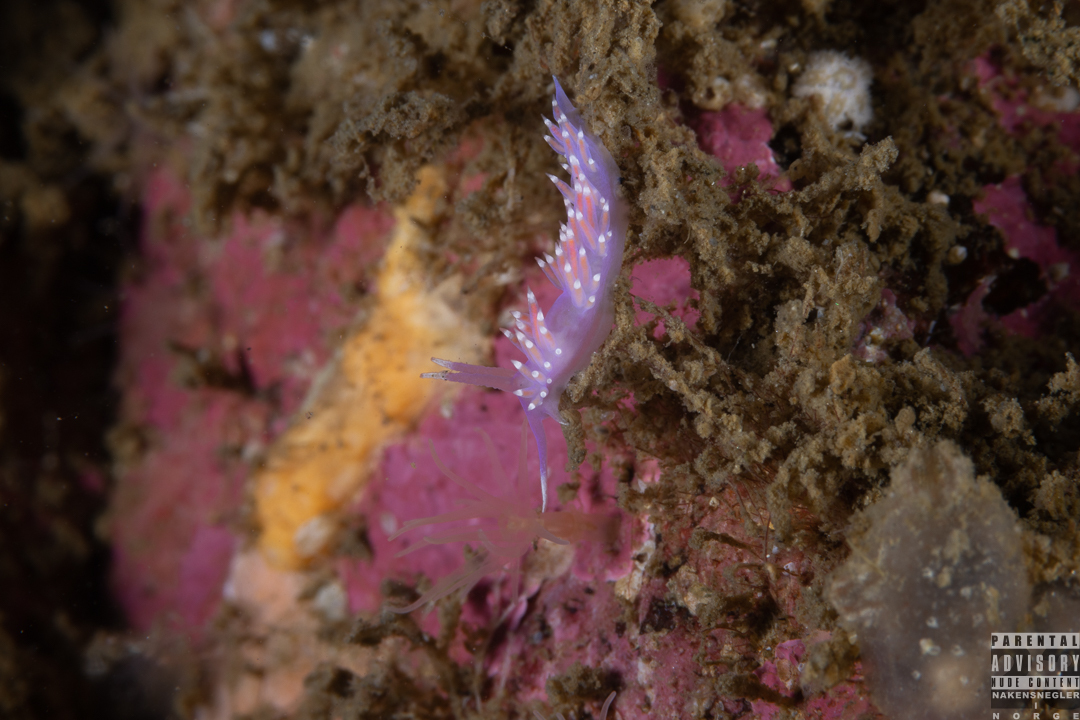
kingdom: Animalia
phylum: Mollusca
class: Gastropoda
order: Nudibranchia
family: Flabellinidae
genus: Edmundsella
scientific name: Edmundsella pedata
